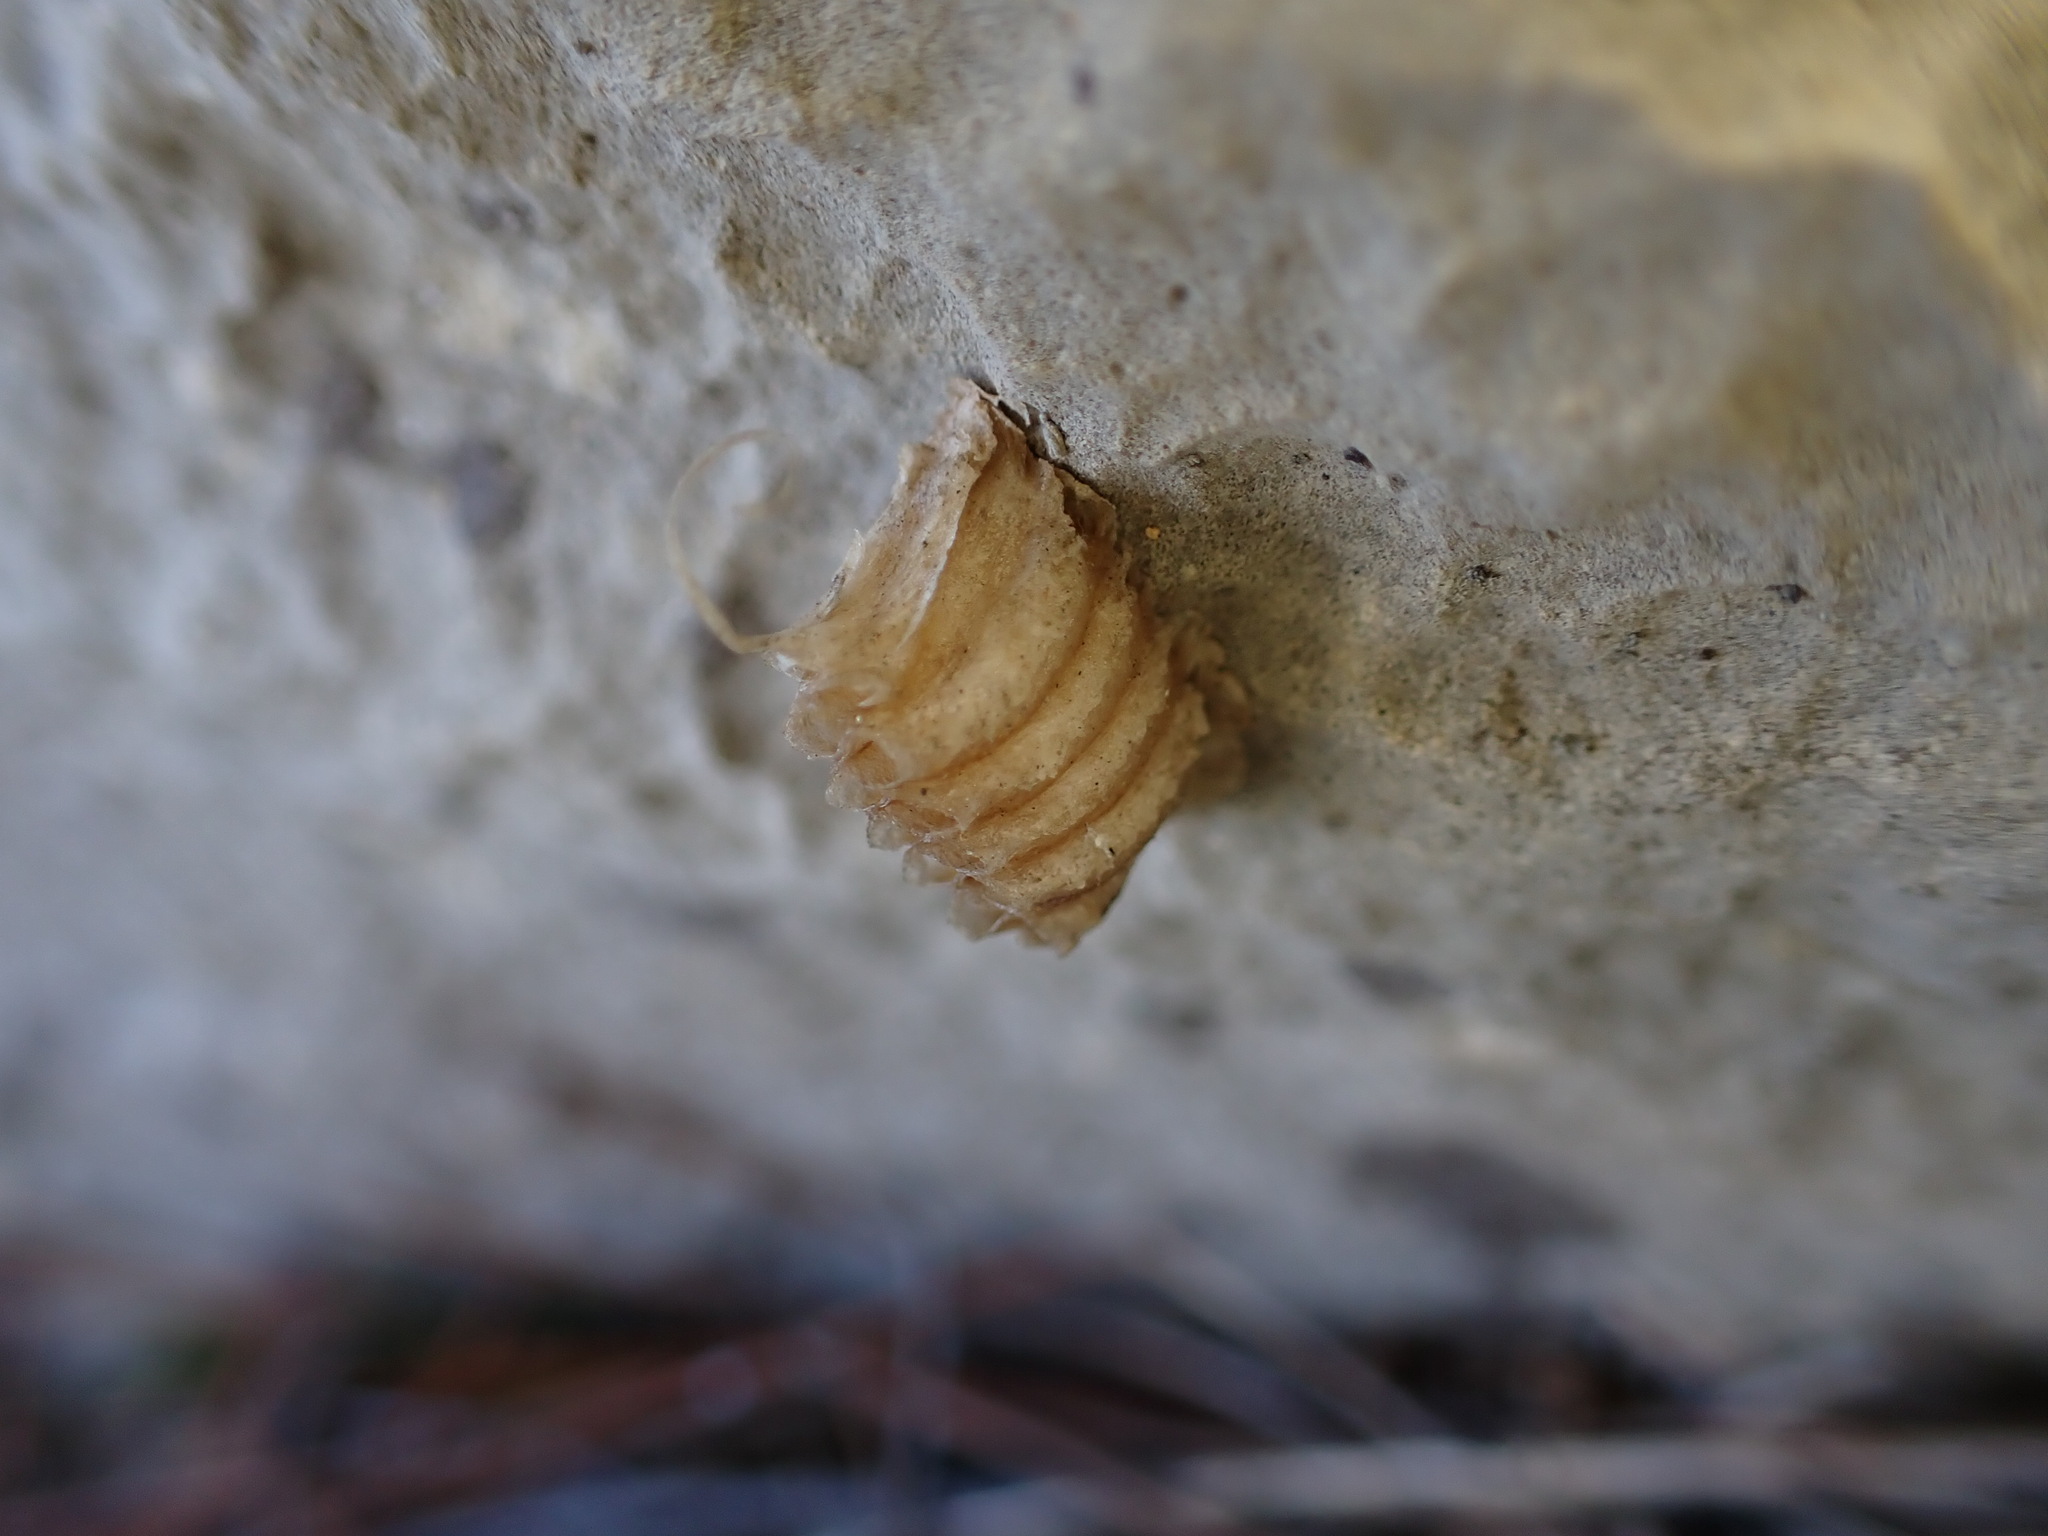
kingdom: Animalia
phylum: Arthropoda
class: Insecta
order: Mantodea
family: Empusidae
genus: Empusa
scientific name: Empusa pennata
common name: Conehead mantis
